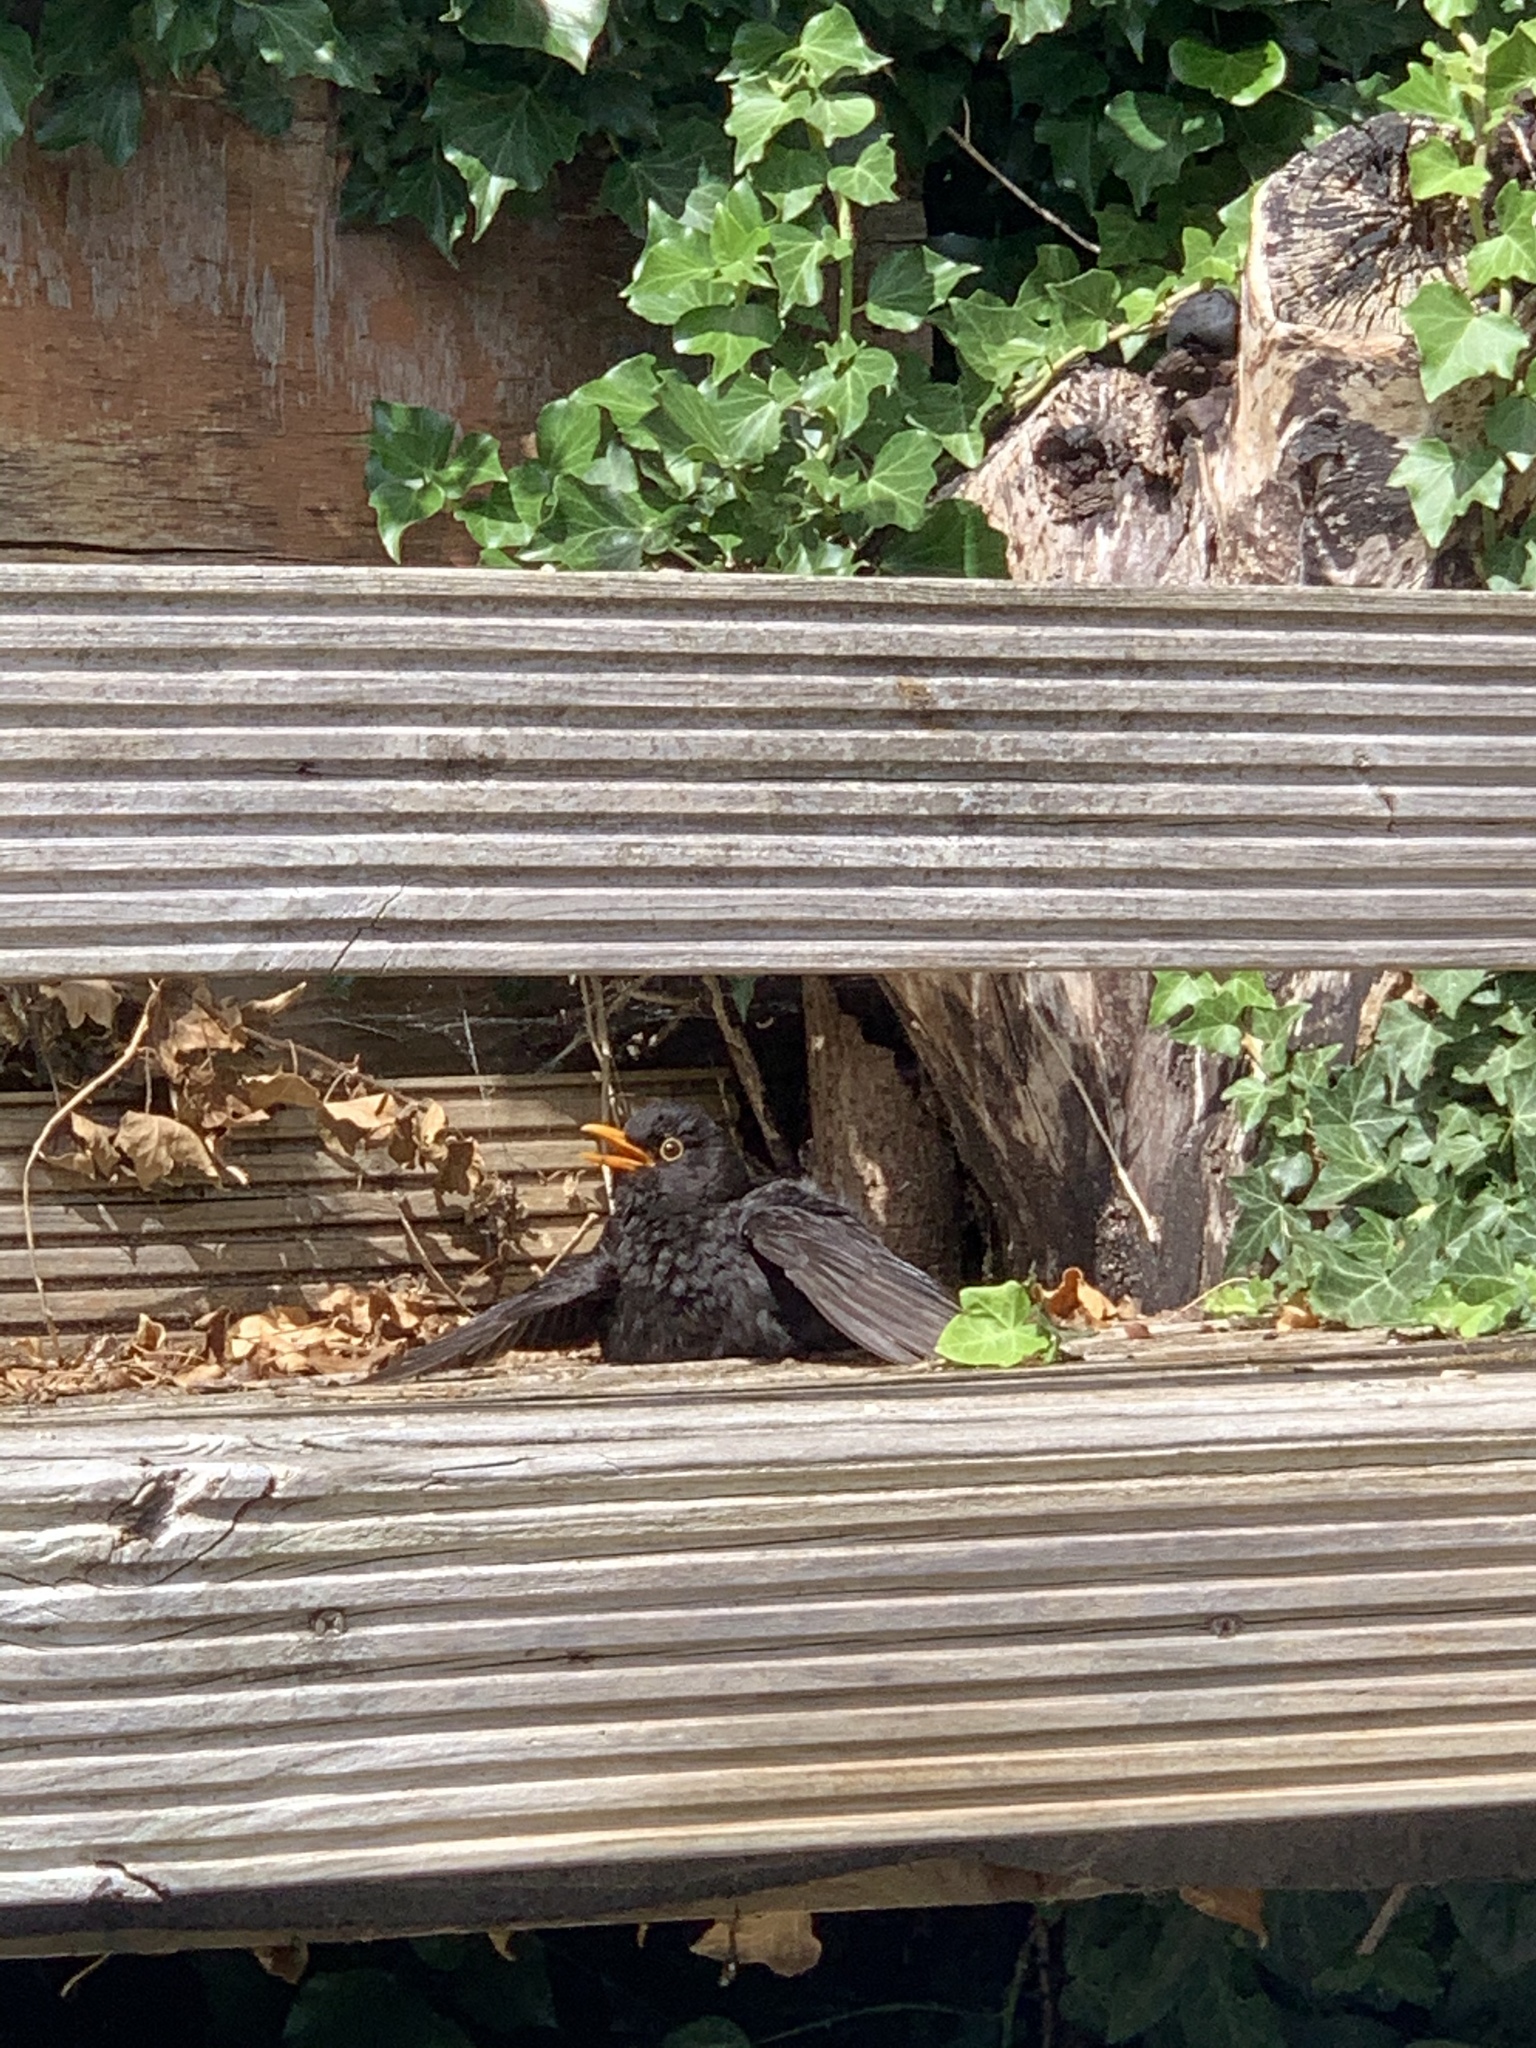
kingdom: Animalia
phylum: Chordata
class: Aves
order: Passeriformes
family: Turdidae
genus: Turdus
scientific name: Turdus merula
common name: Common blackbird
